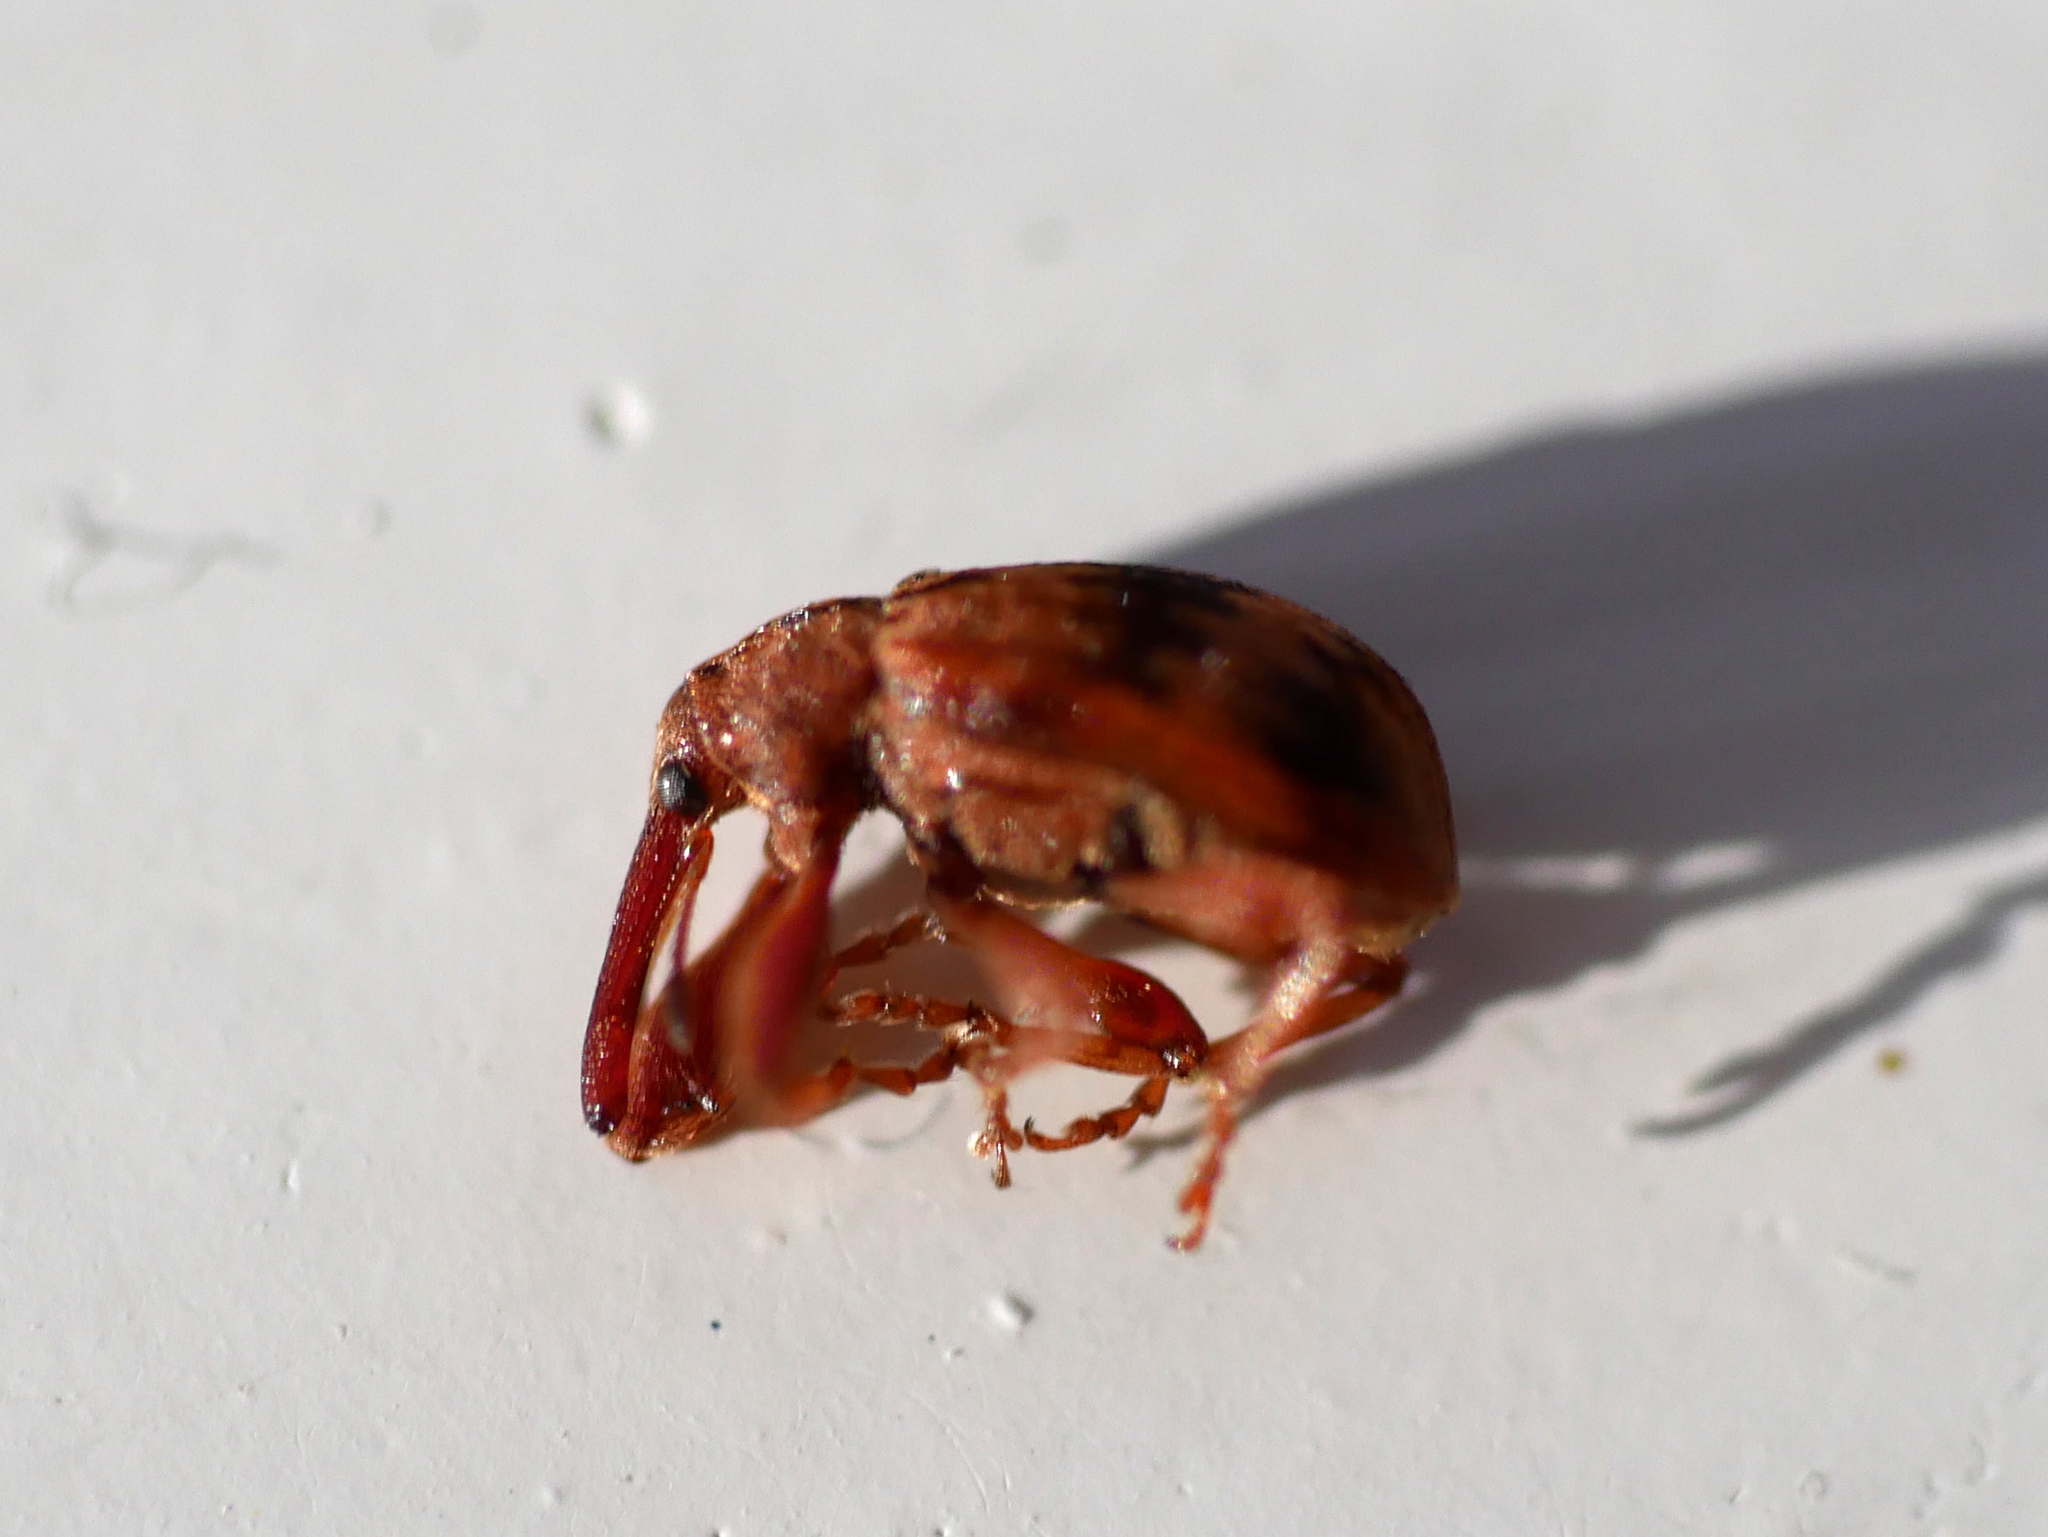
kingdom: Animalia
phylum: Arthropoda
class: Insecta
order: Coleoptera
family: Curculionidae
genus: Anthonomus
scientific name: Anthonomus rectirostris
